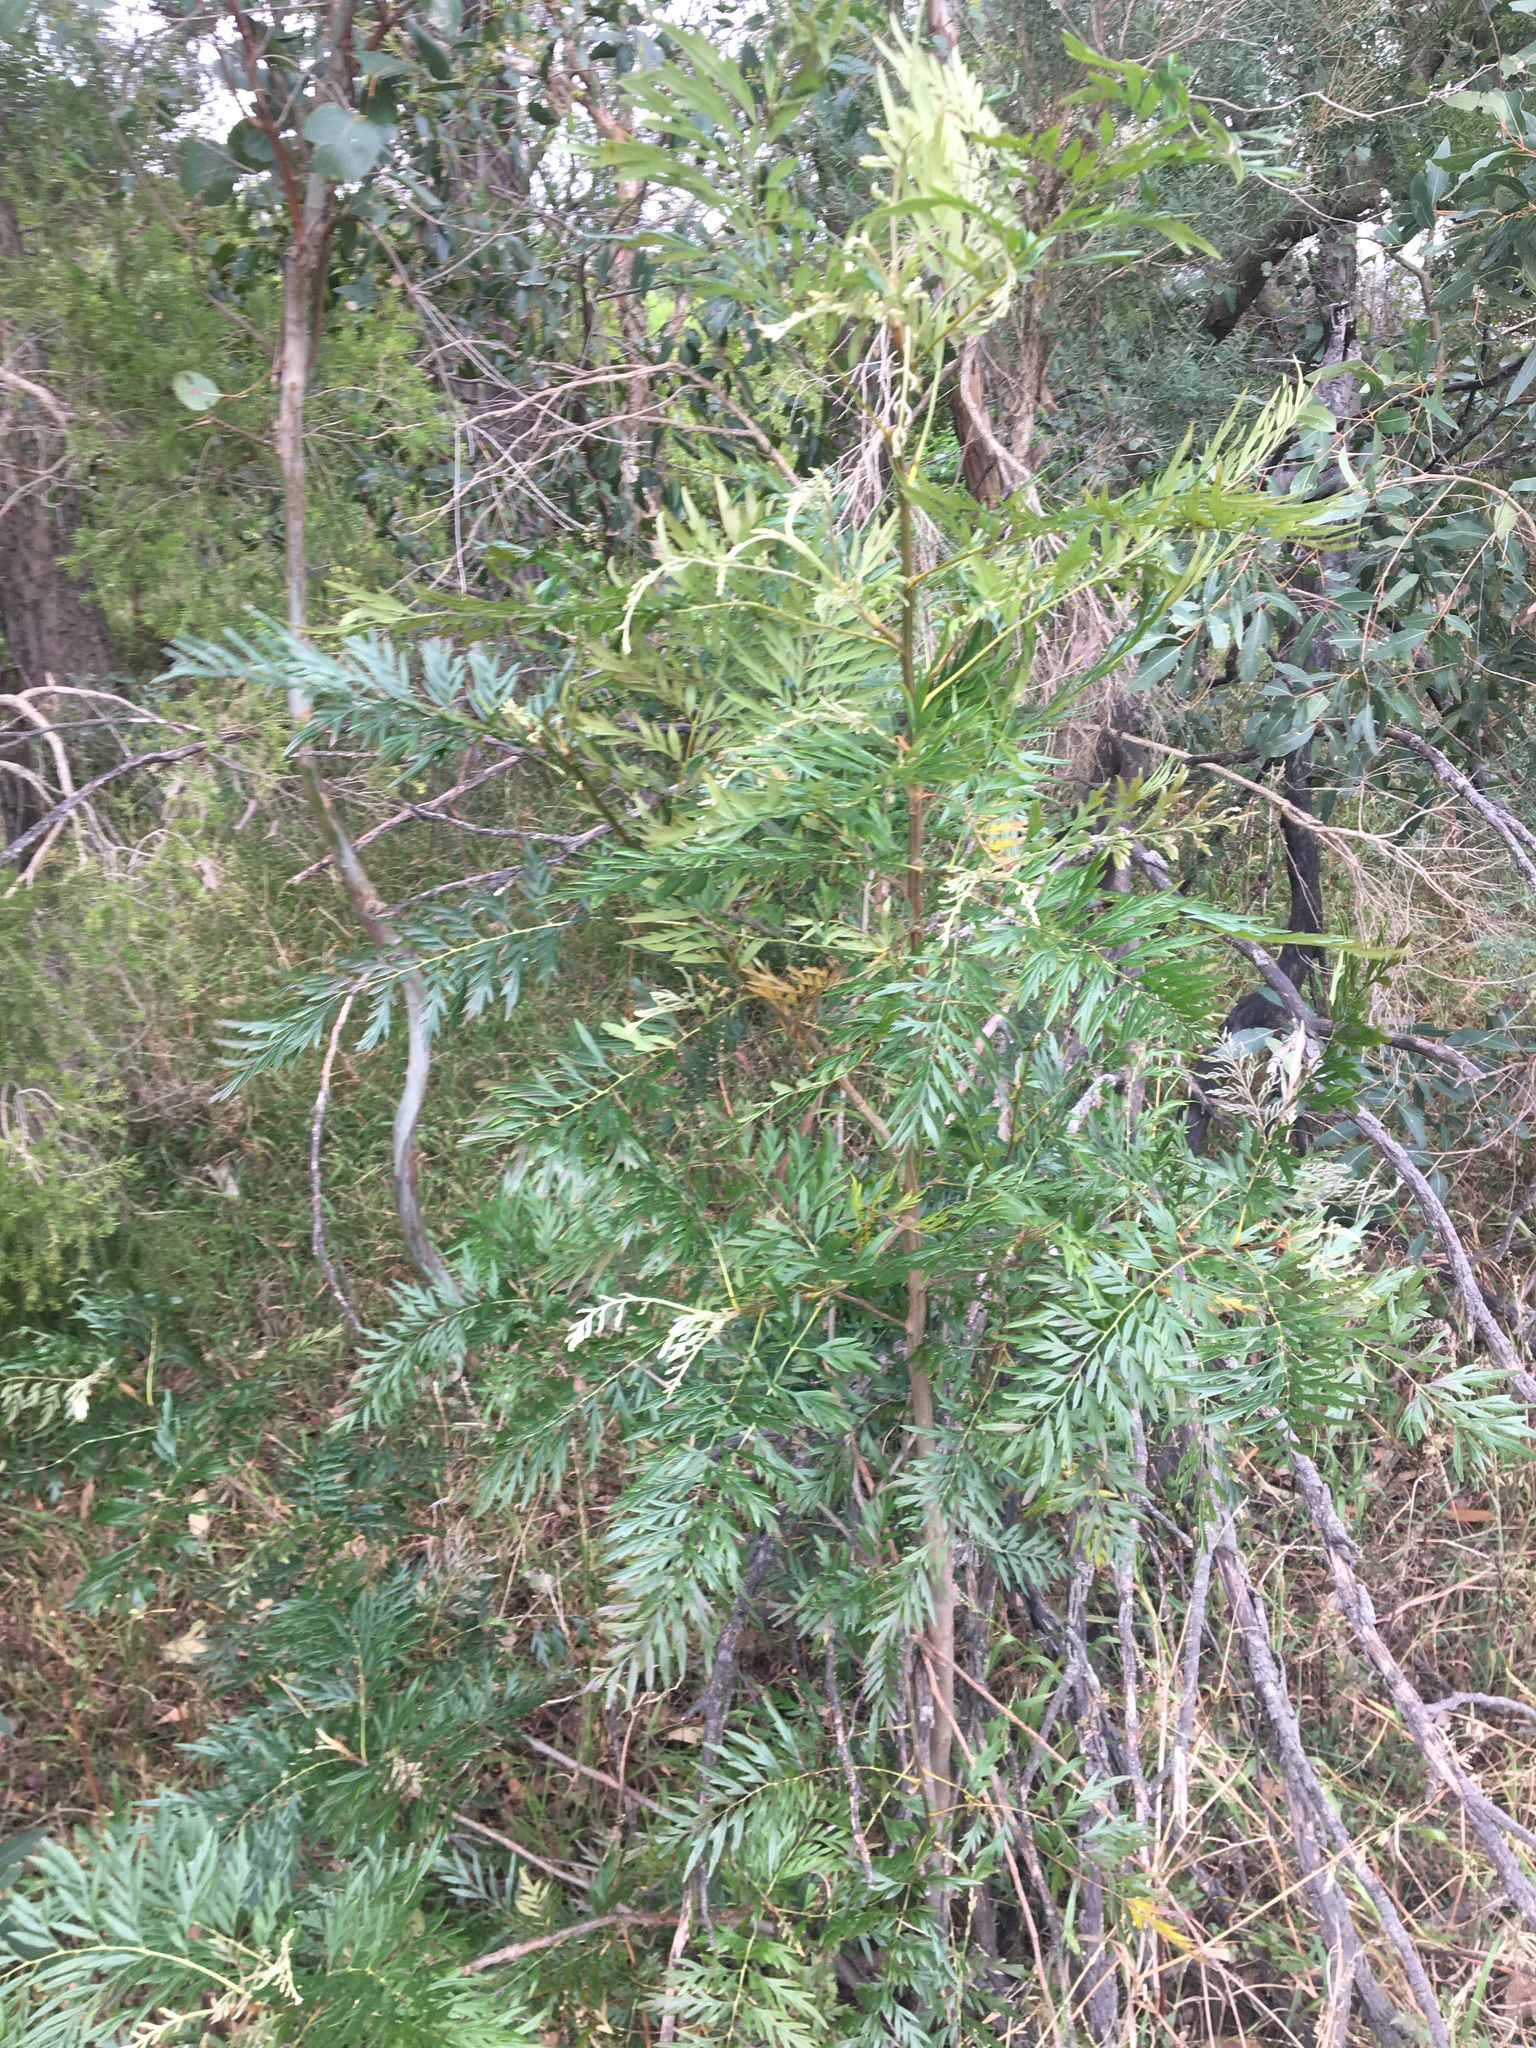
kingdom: Plantae
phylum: Tracheophyta
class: Magnoliopsida
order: Proteales
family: Proteaceae
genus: Grevillea
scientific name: Grevillea robusta
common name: Silkoak
